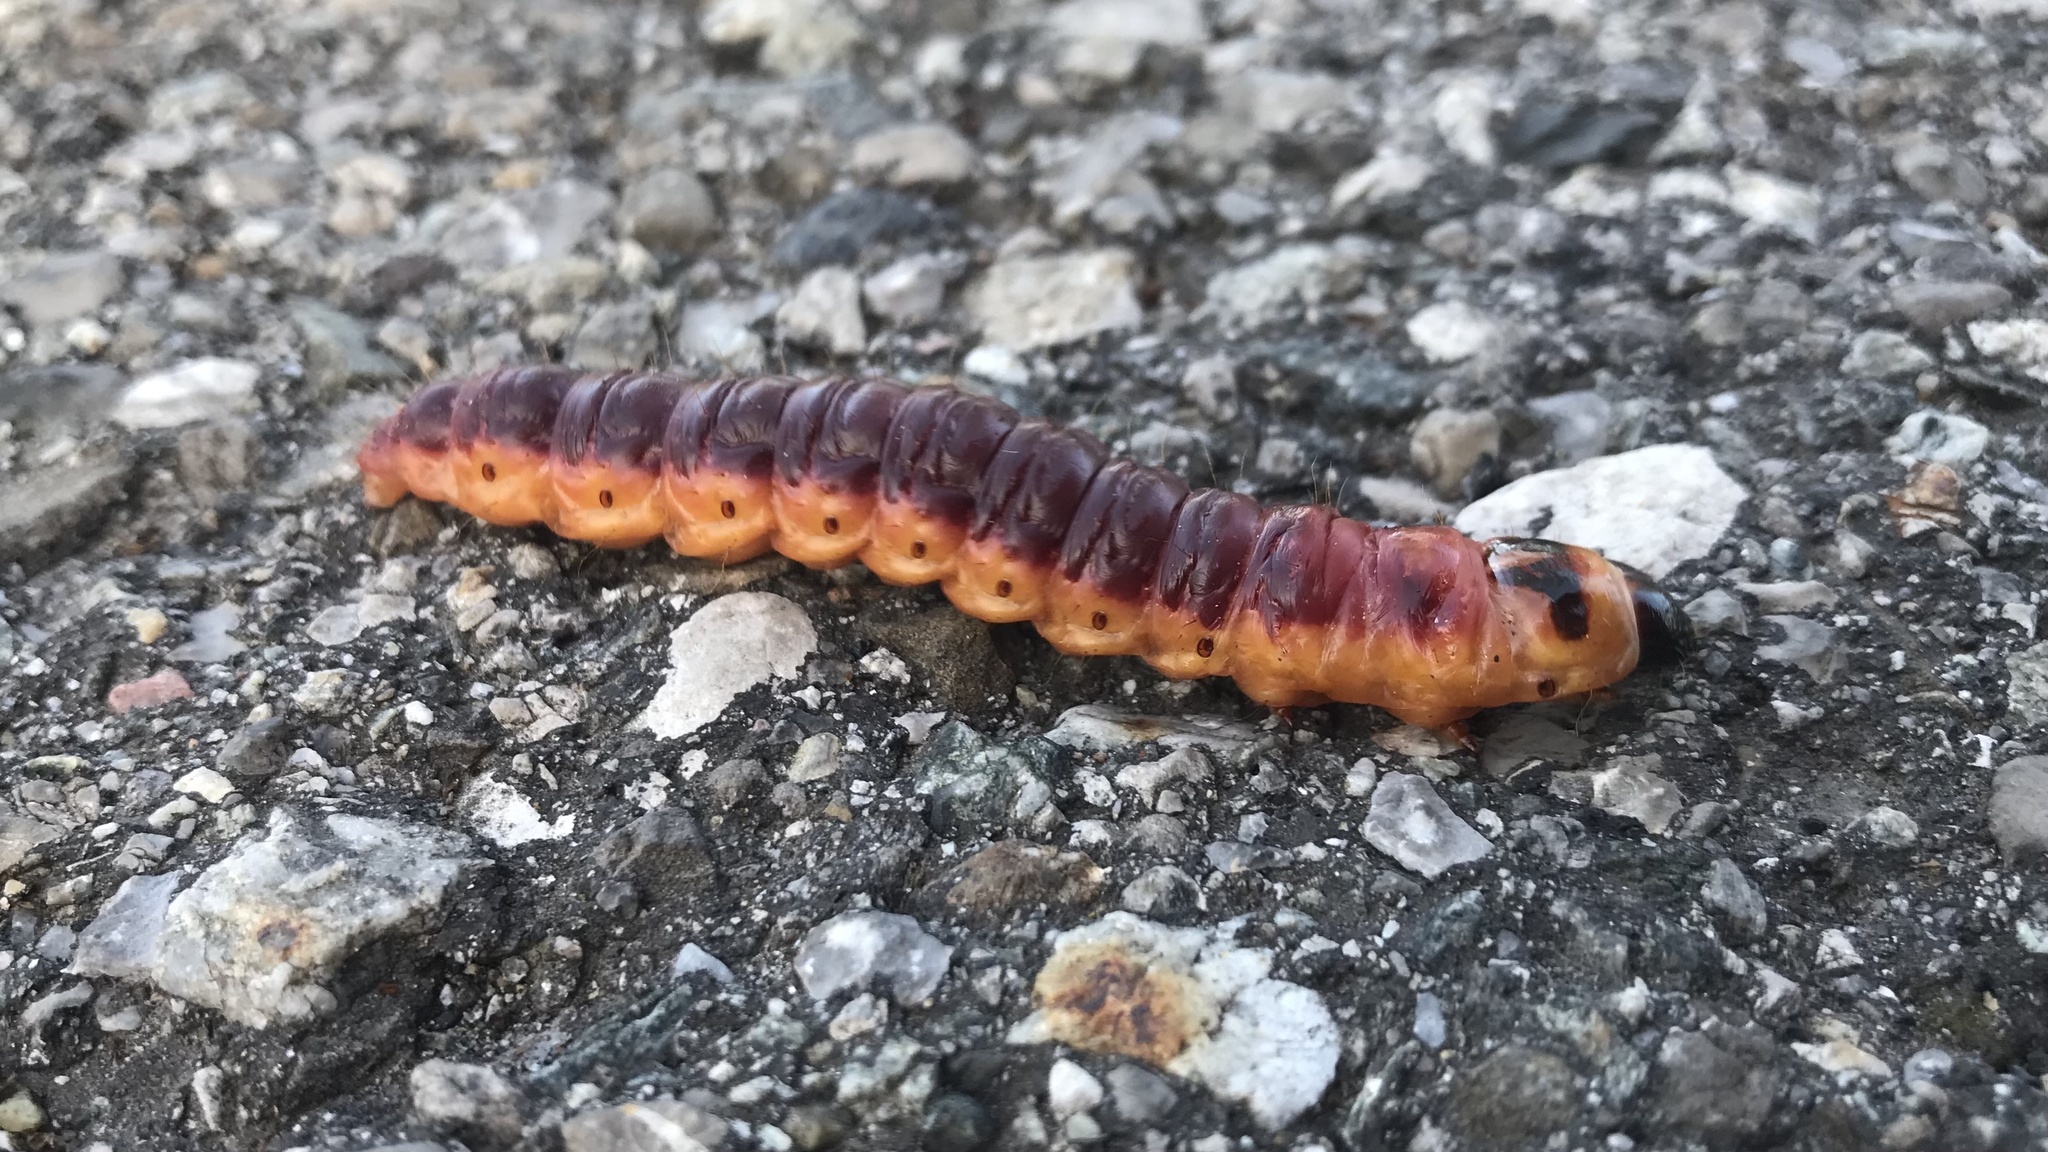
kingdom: Animalia
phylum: Arthropoda
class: Insecta
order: Lepidoptera
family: Cossidae
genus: Cossus
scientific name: Cossus cossus
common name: Goat moth
